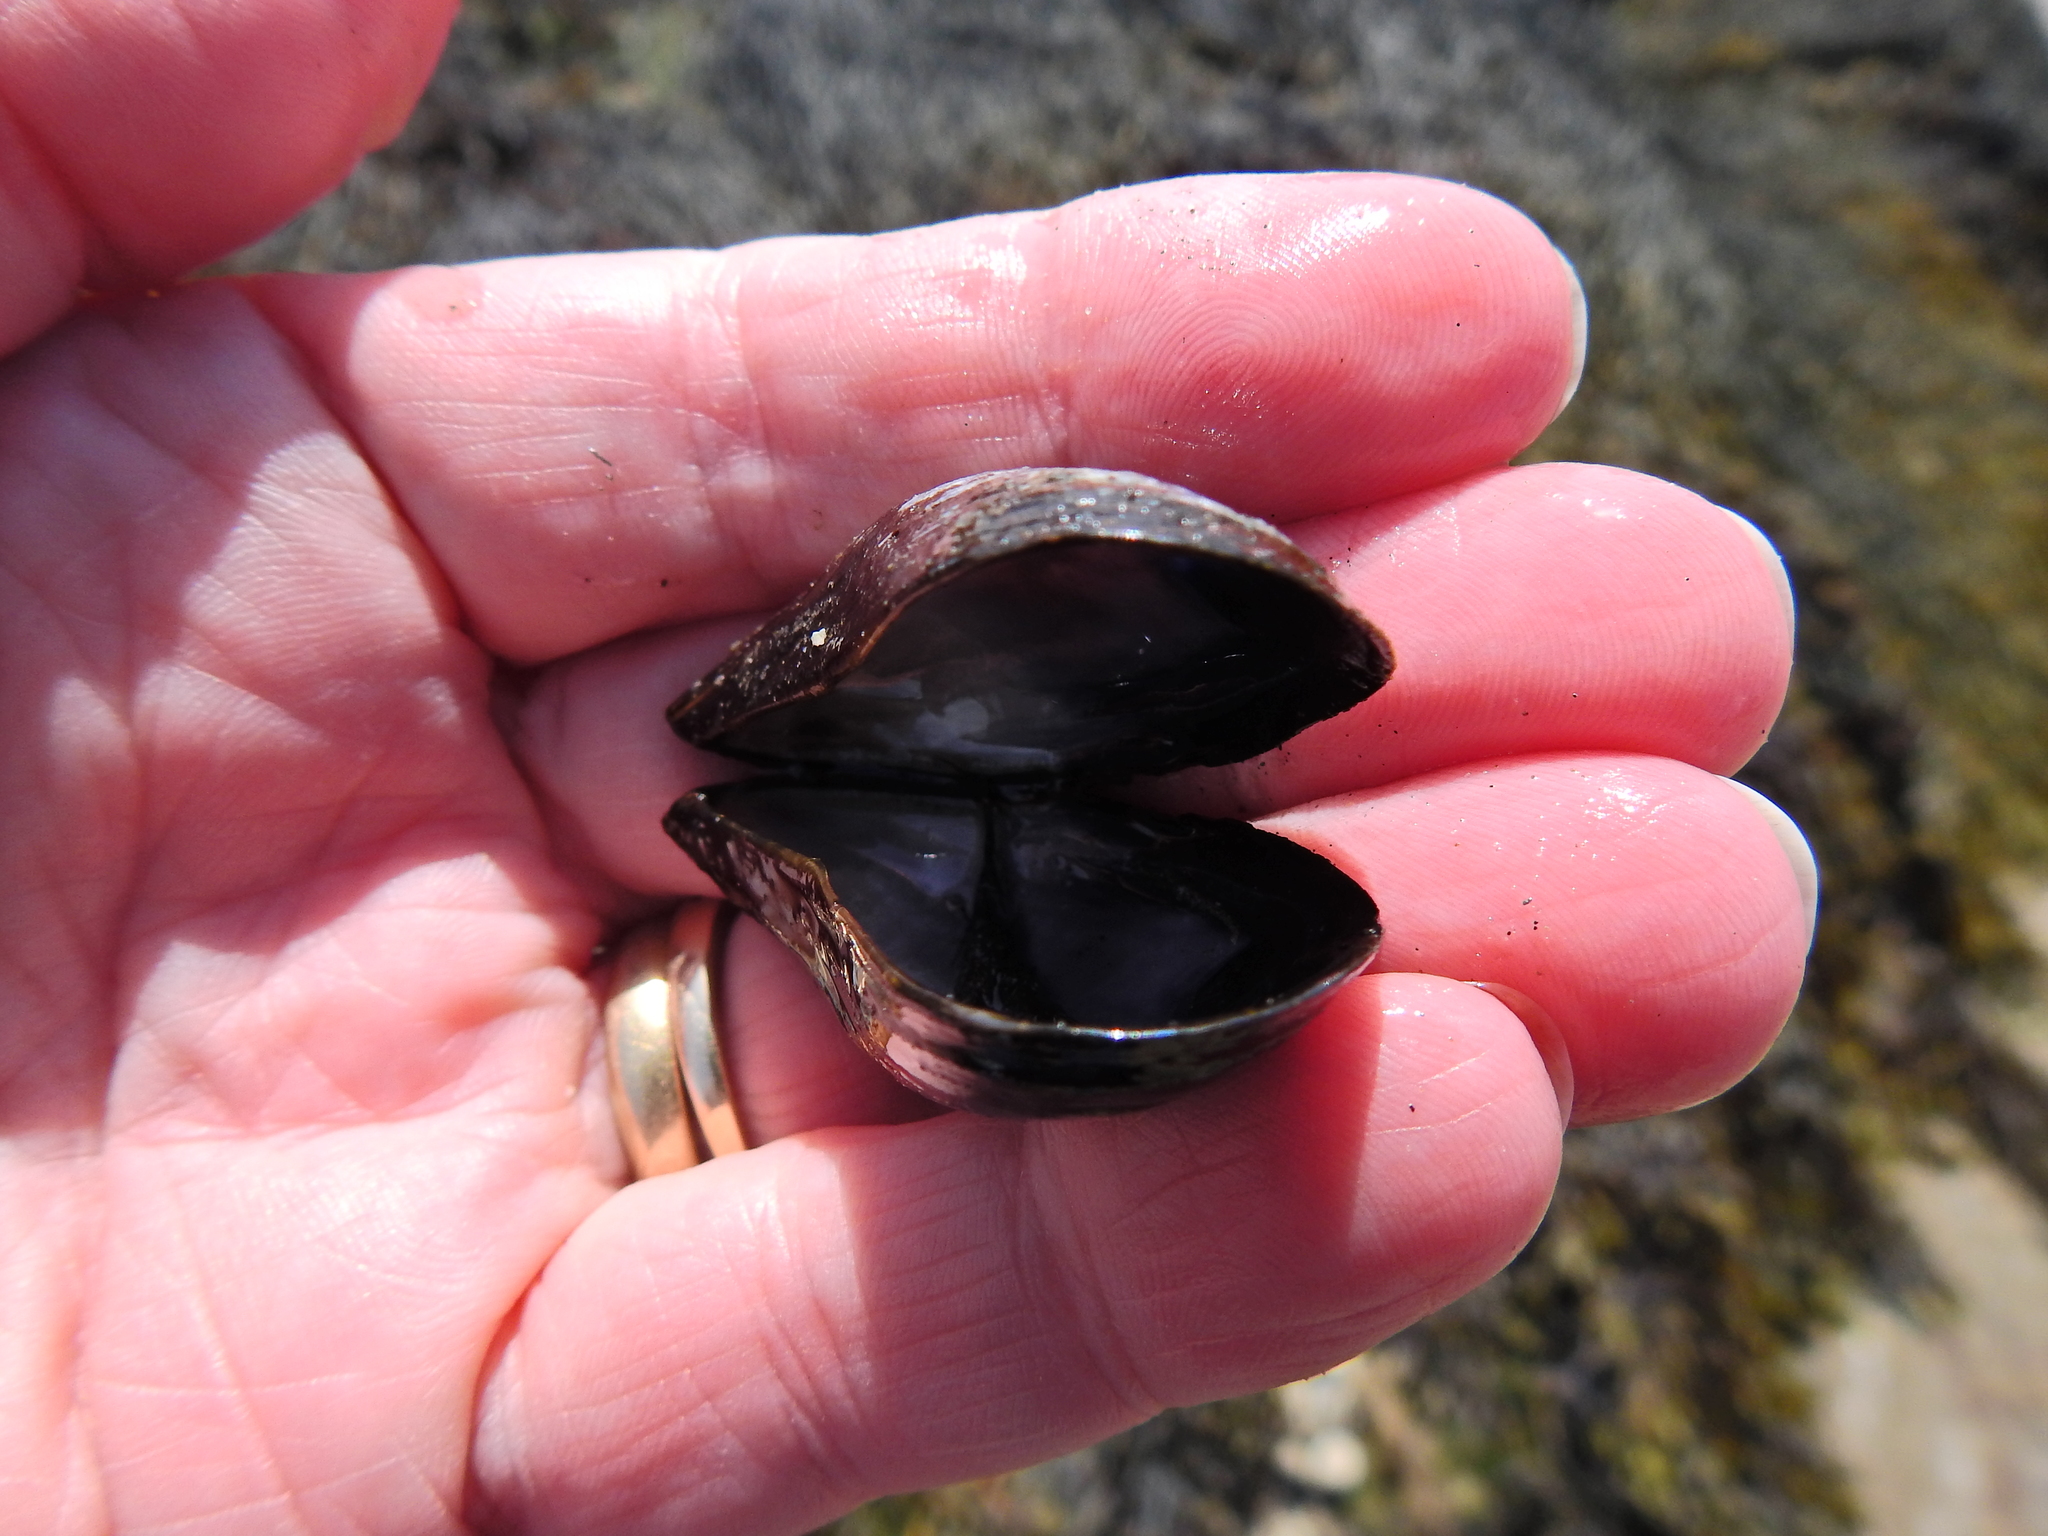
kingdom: Animalia
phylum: Mollusca
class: Bivalvia
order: Mytilida
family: Mytilidae
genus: Mytilus
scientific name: Mytilus edulis
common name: Blue mussel
